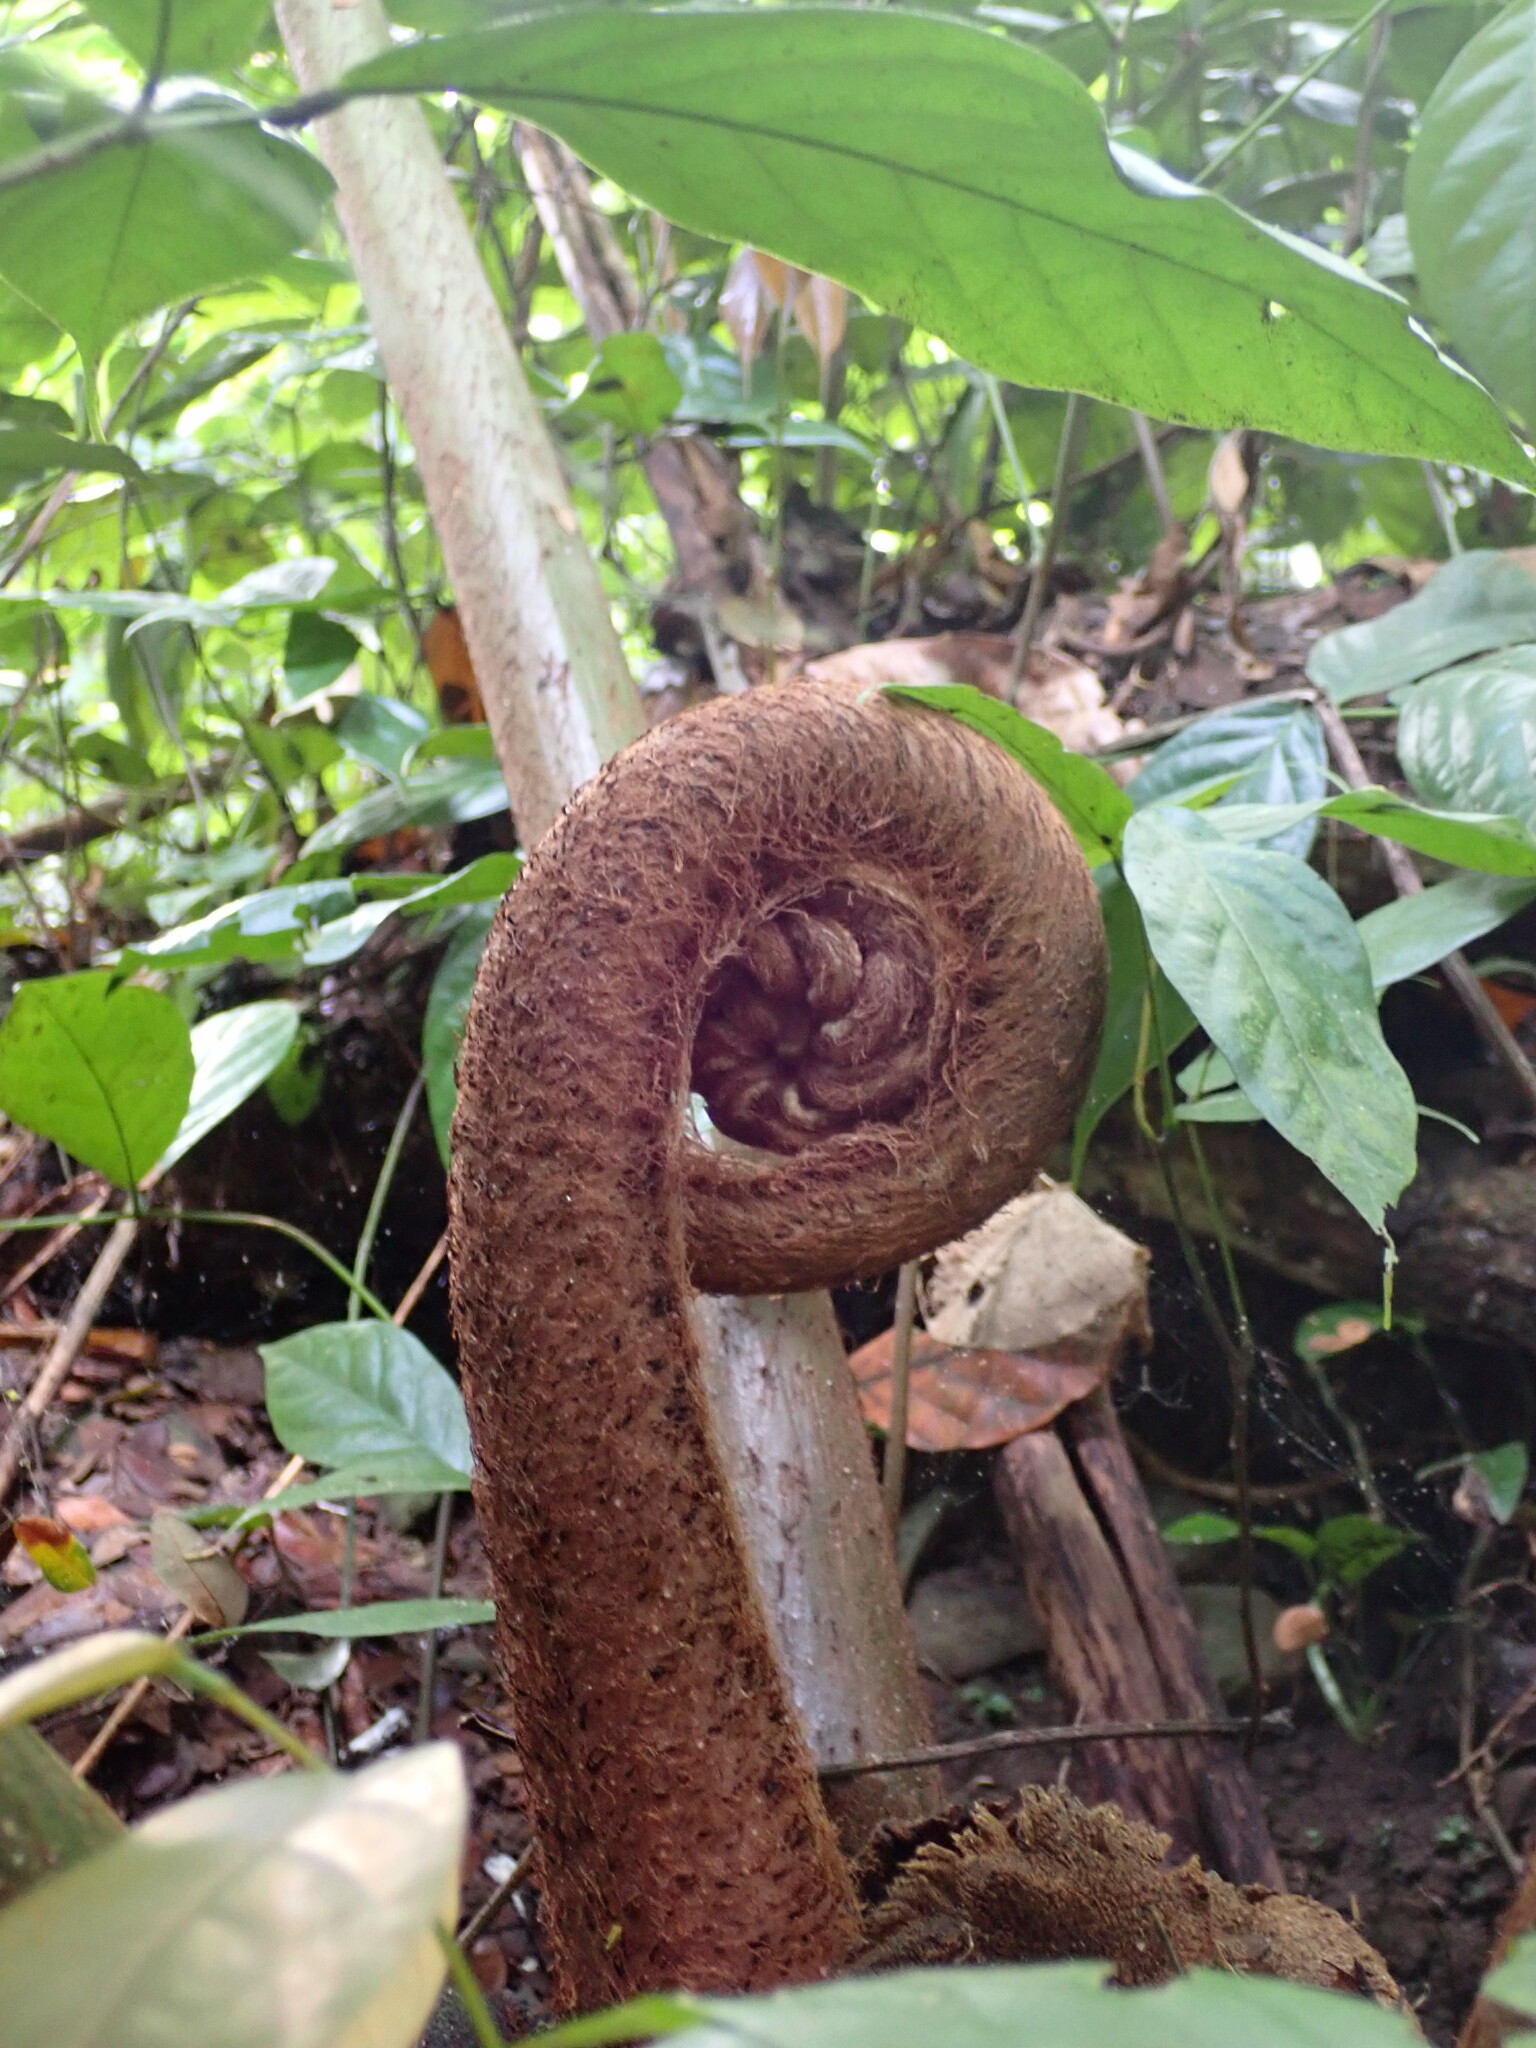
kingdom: Plantae
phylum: Tracheophyta
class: Polypodiopsida
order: Marattiales
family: Marattiaceae
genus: Angiopteris
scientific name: Angiopteris evecta
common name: Mule's-foot fern
